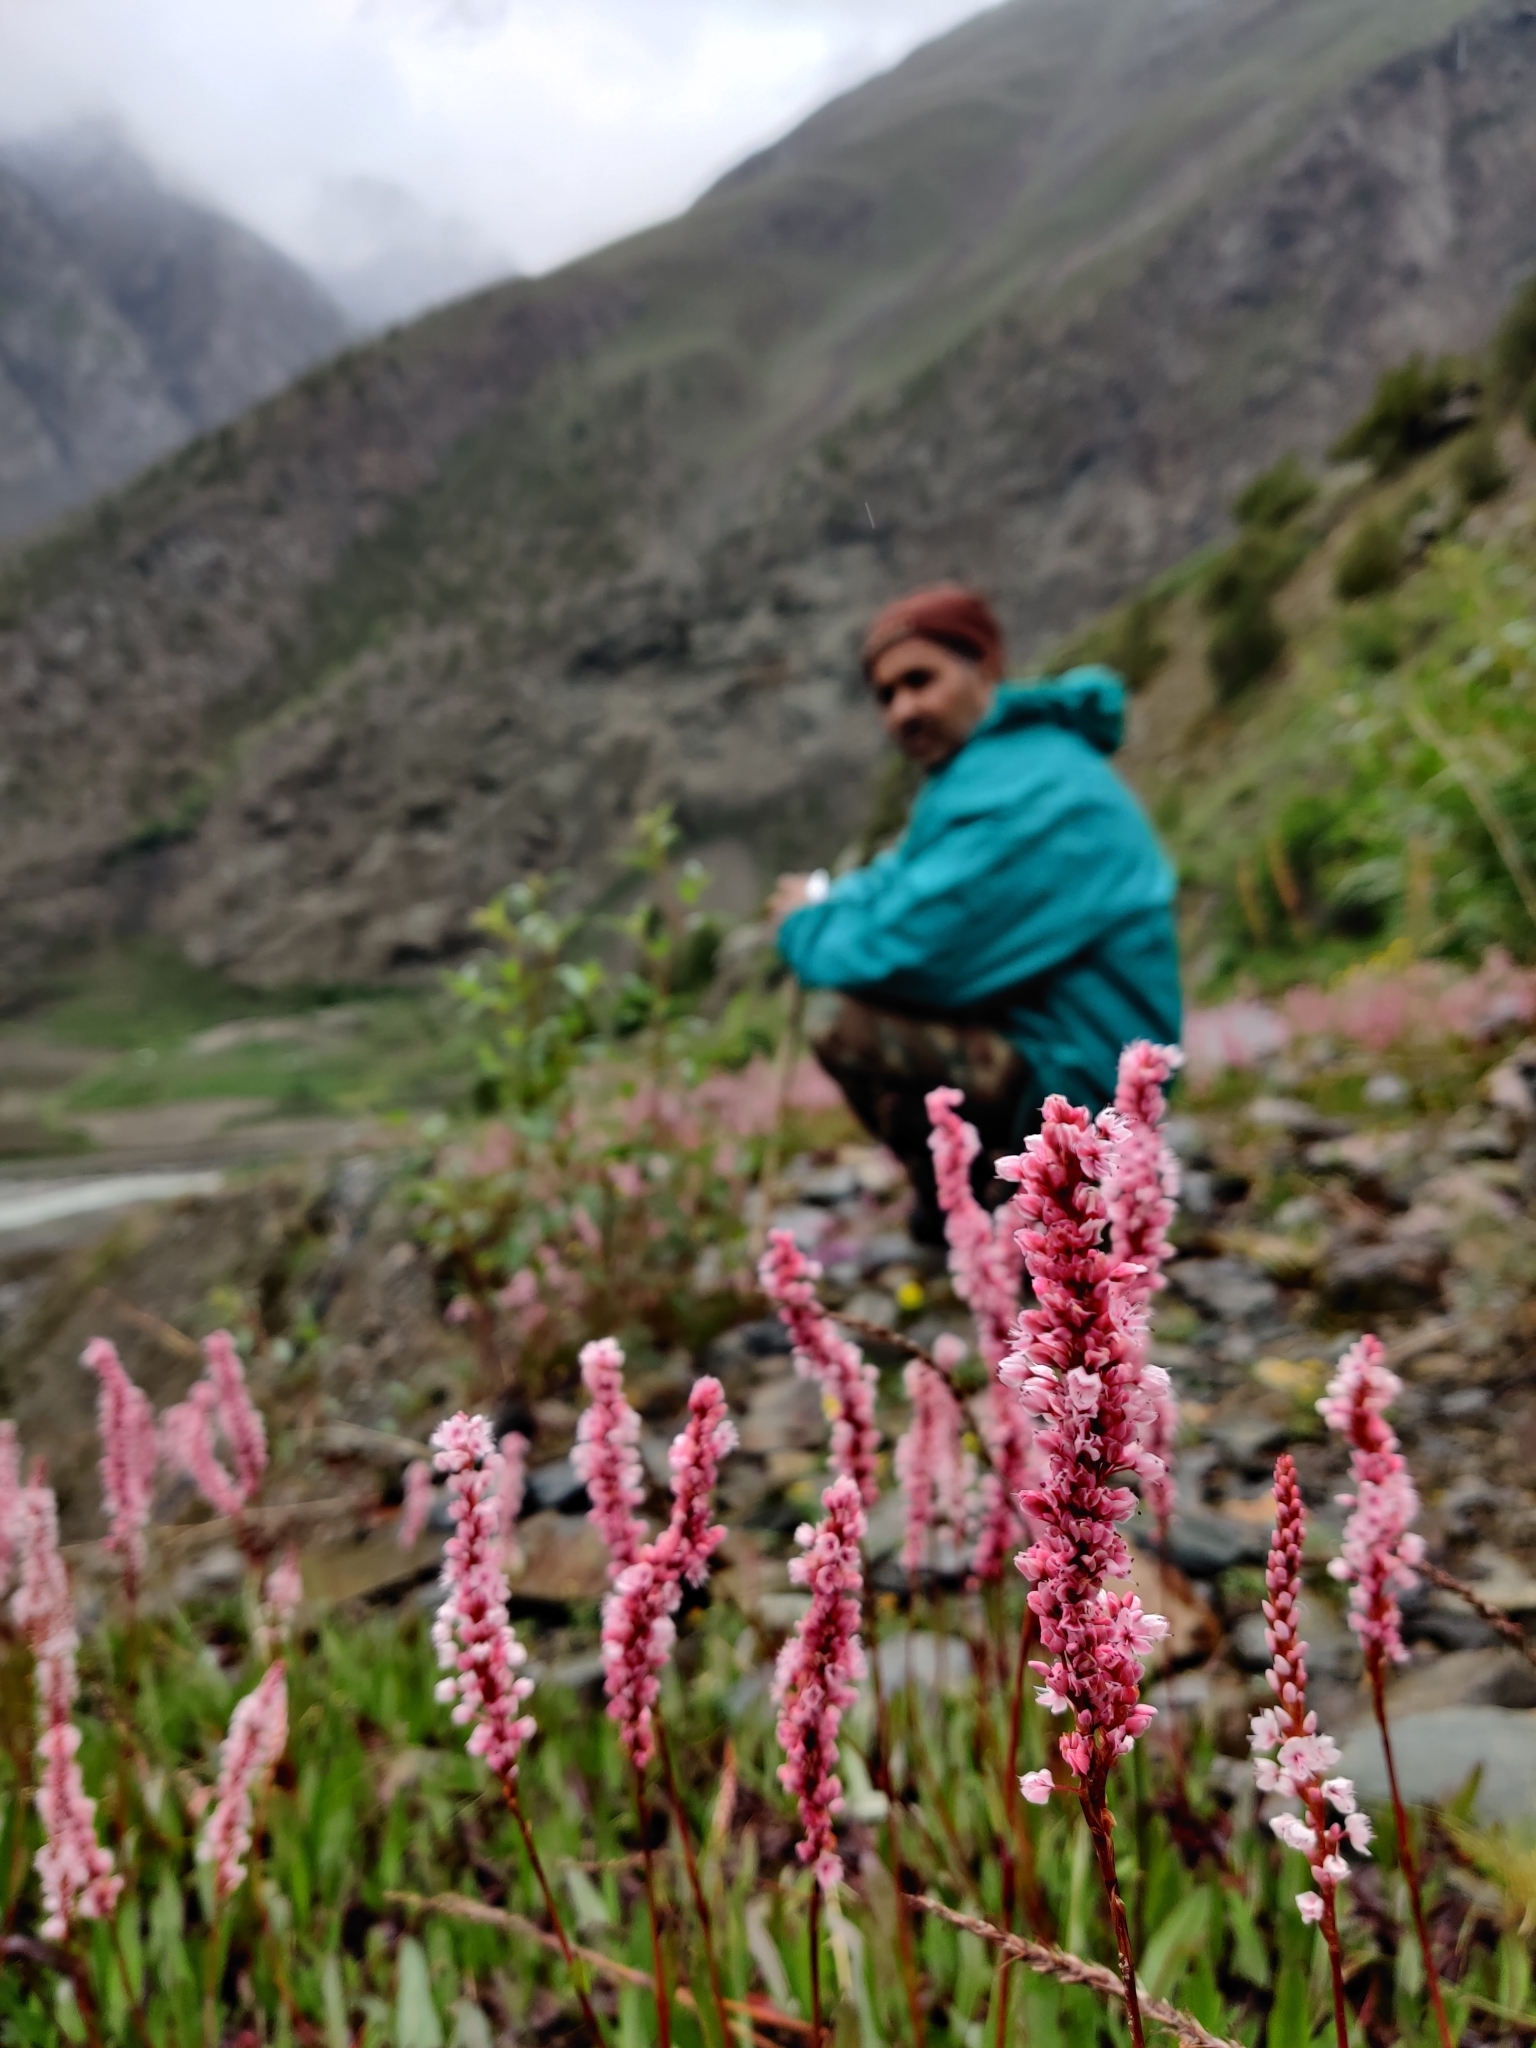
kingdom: Plantae
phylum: Tracheophyta
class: Magnoliopsida
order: Caryophyllales
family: Polygonaceae
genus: Bistorta
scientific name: Bistorta affinis
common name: Himalayan fleeceflower
